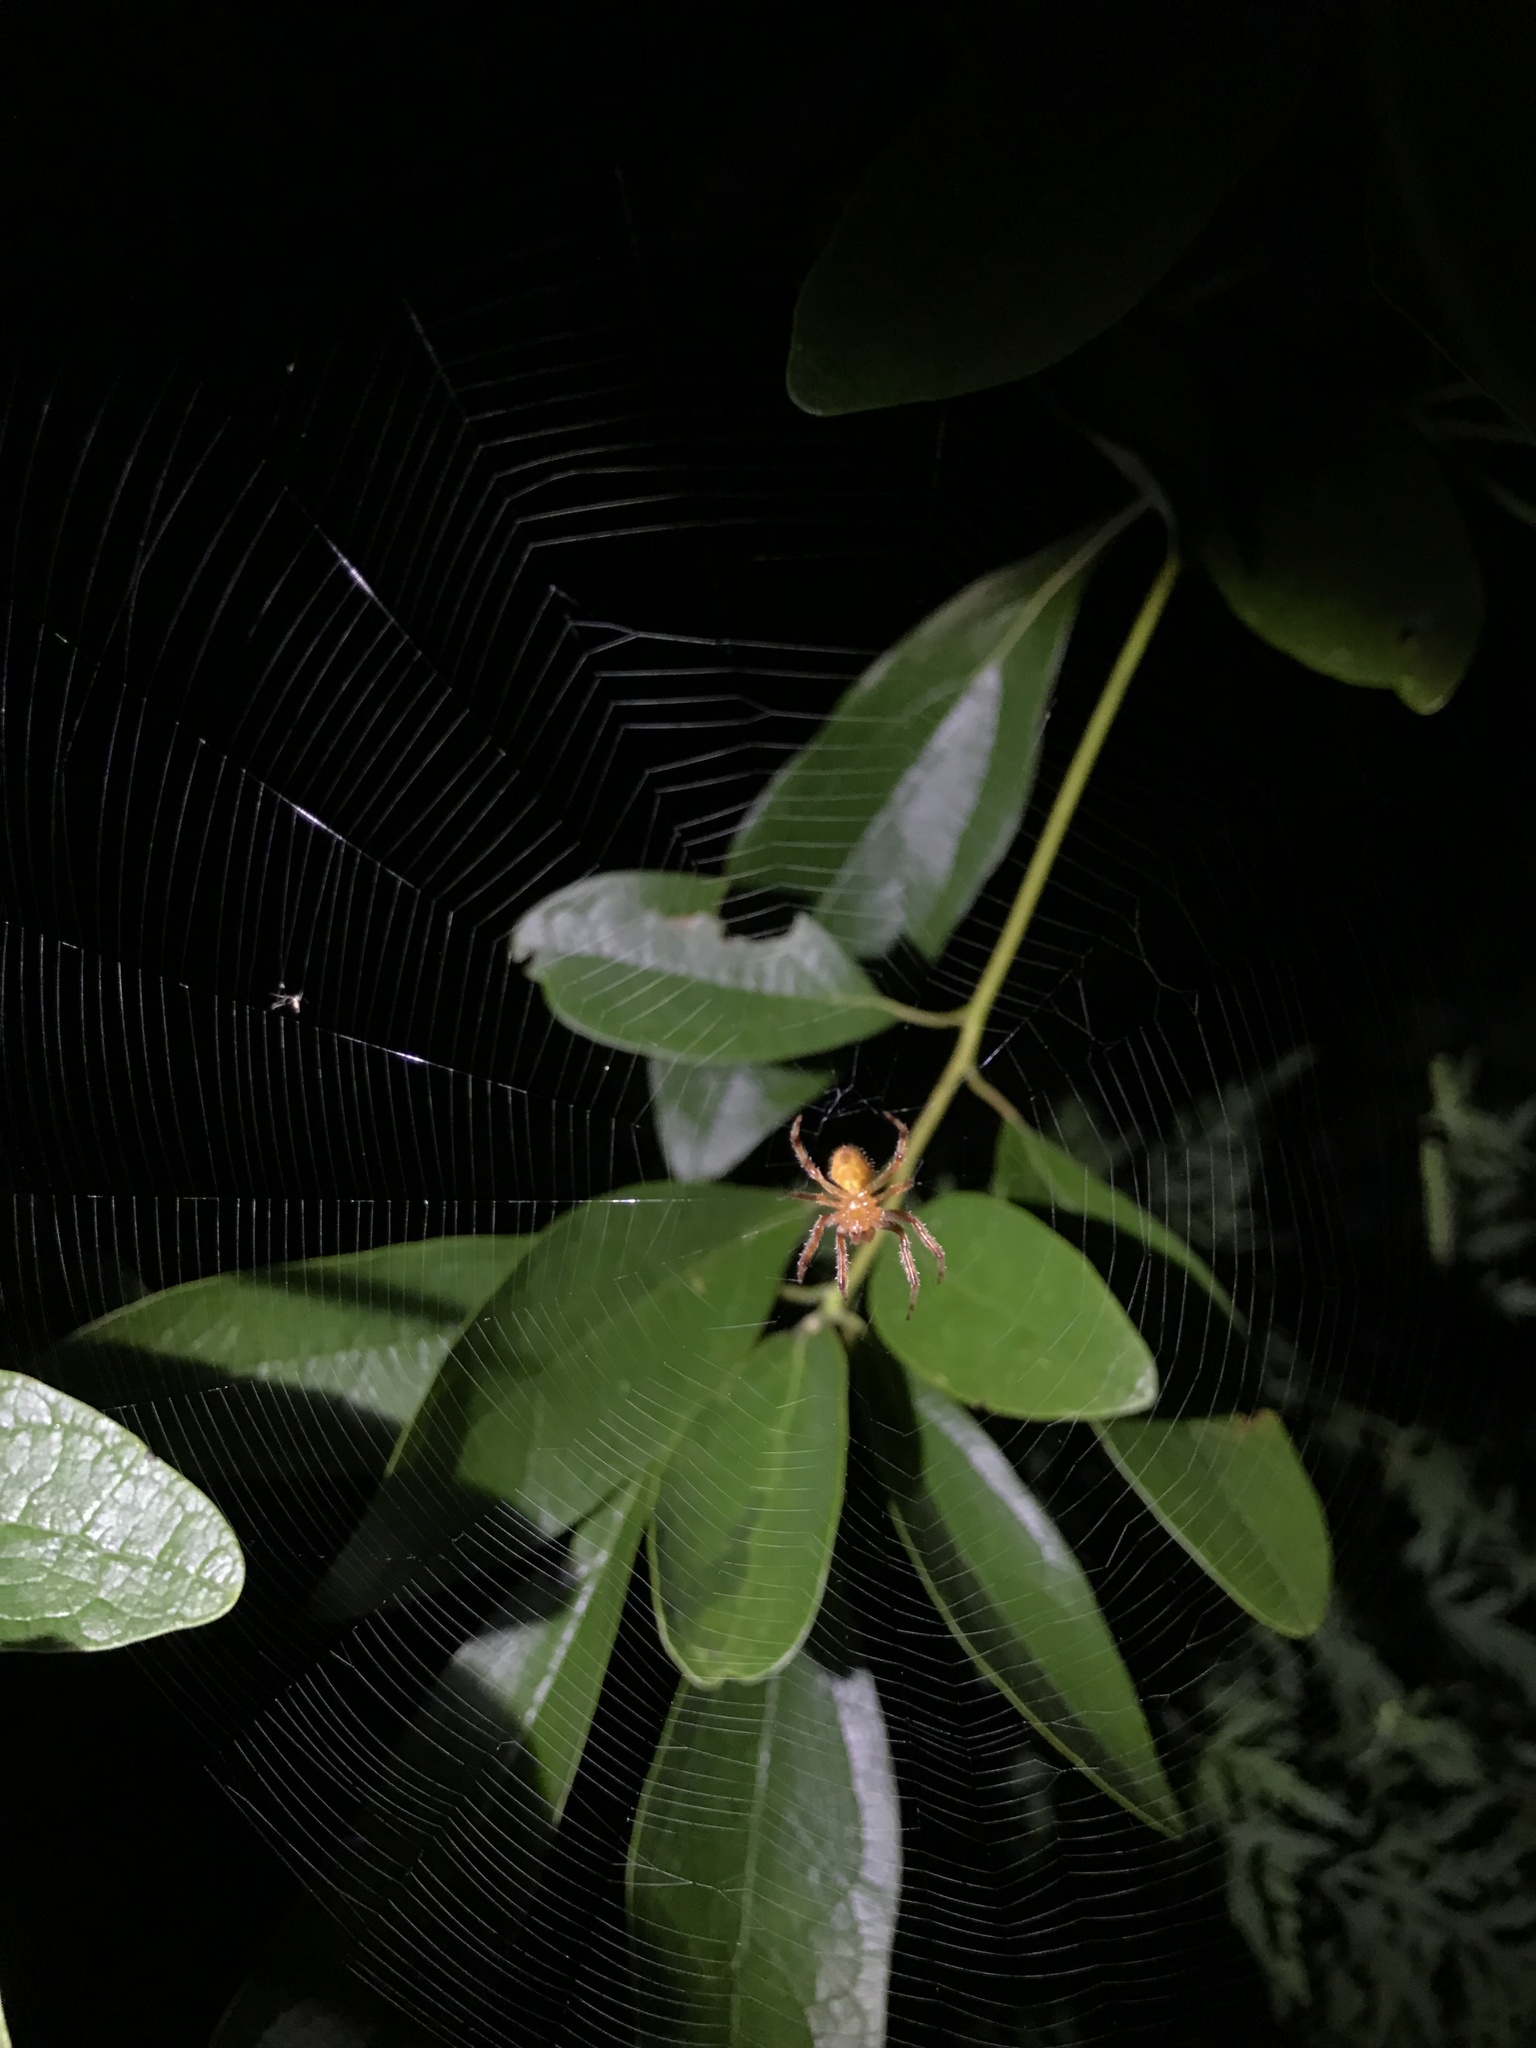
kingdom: Animalia
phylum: Arthropoda
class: Arachnida
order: Araneae
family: Araneidae
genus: Eriophora
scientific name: Eriophora ravilla
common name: Orb weavers
